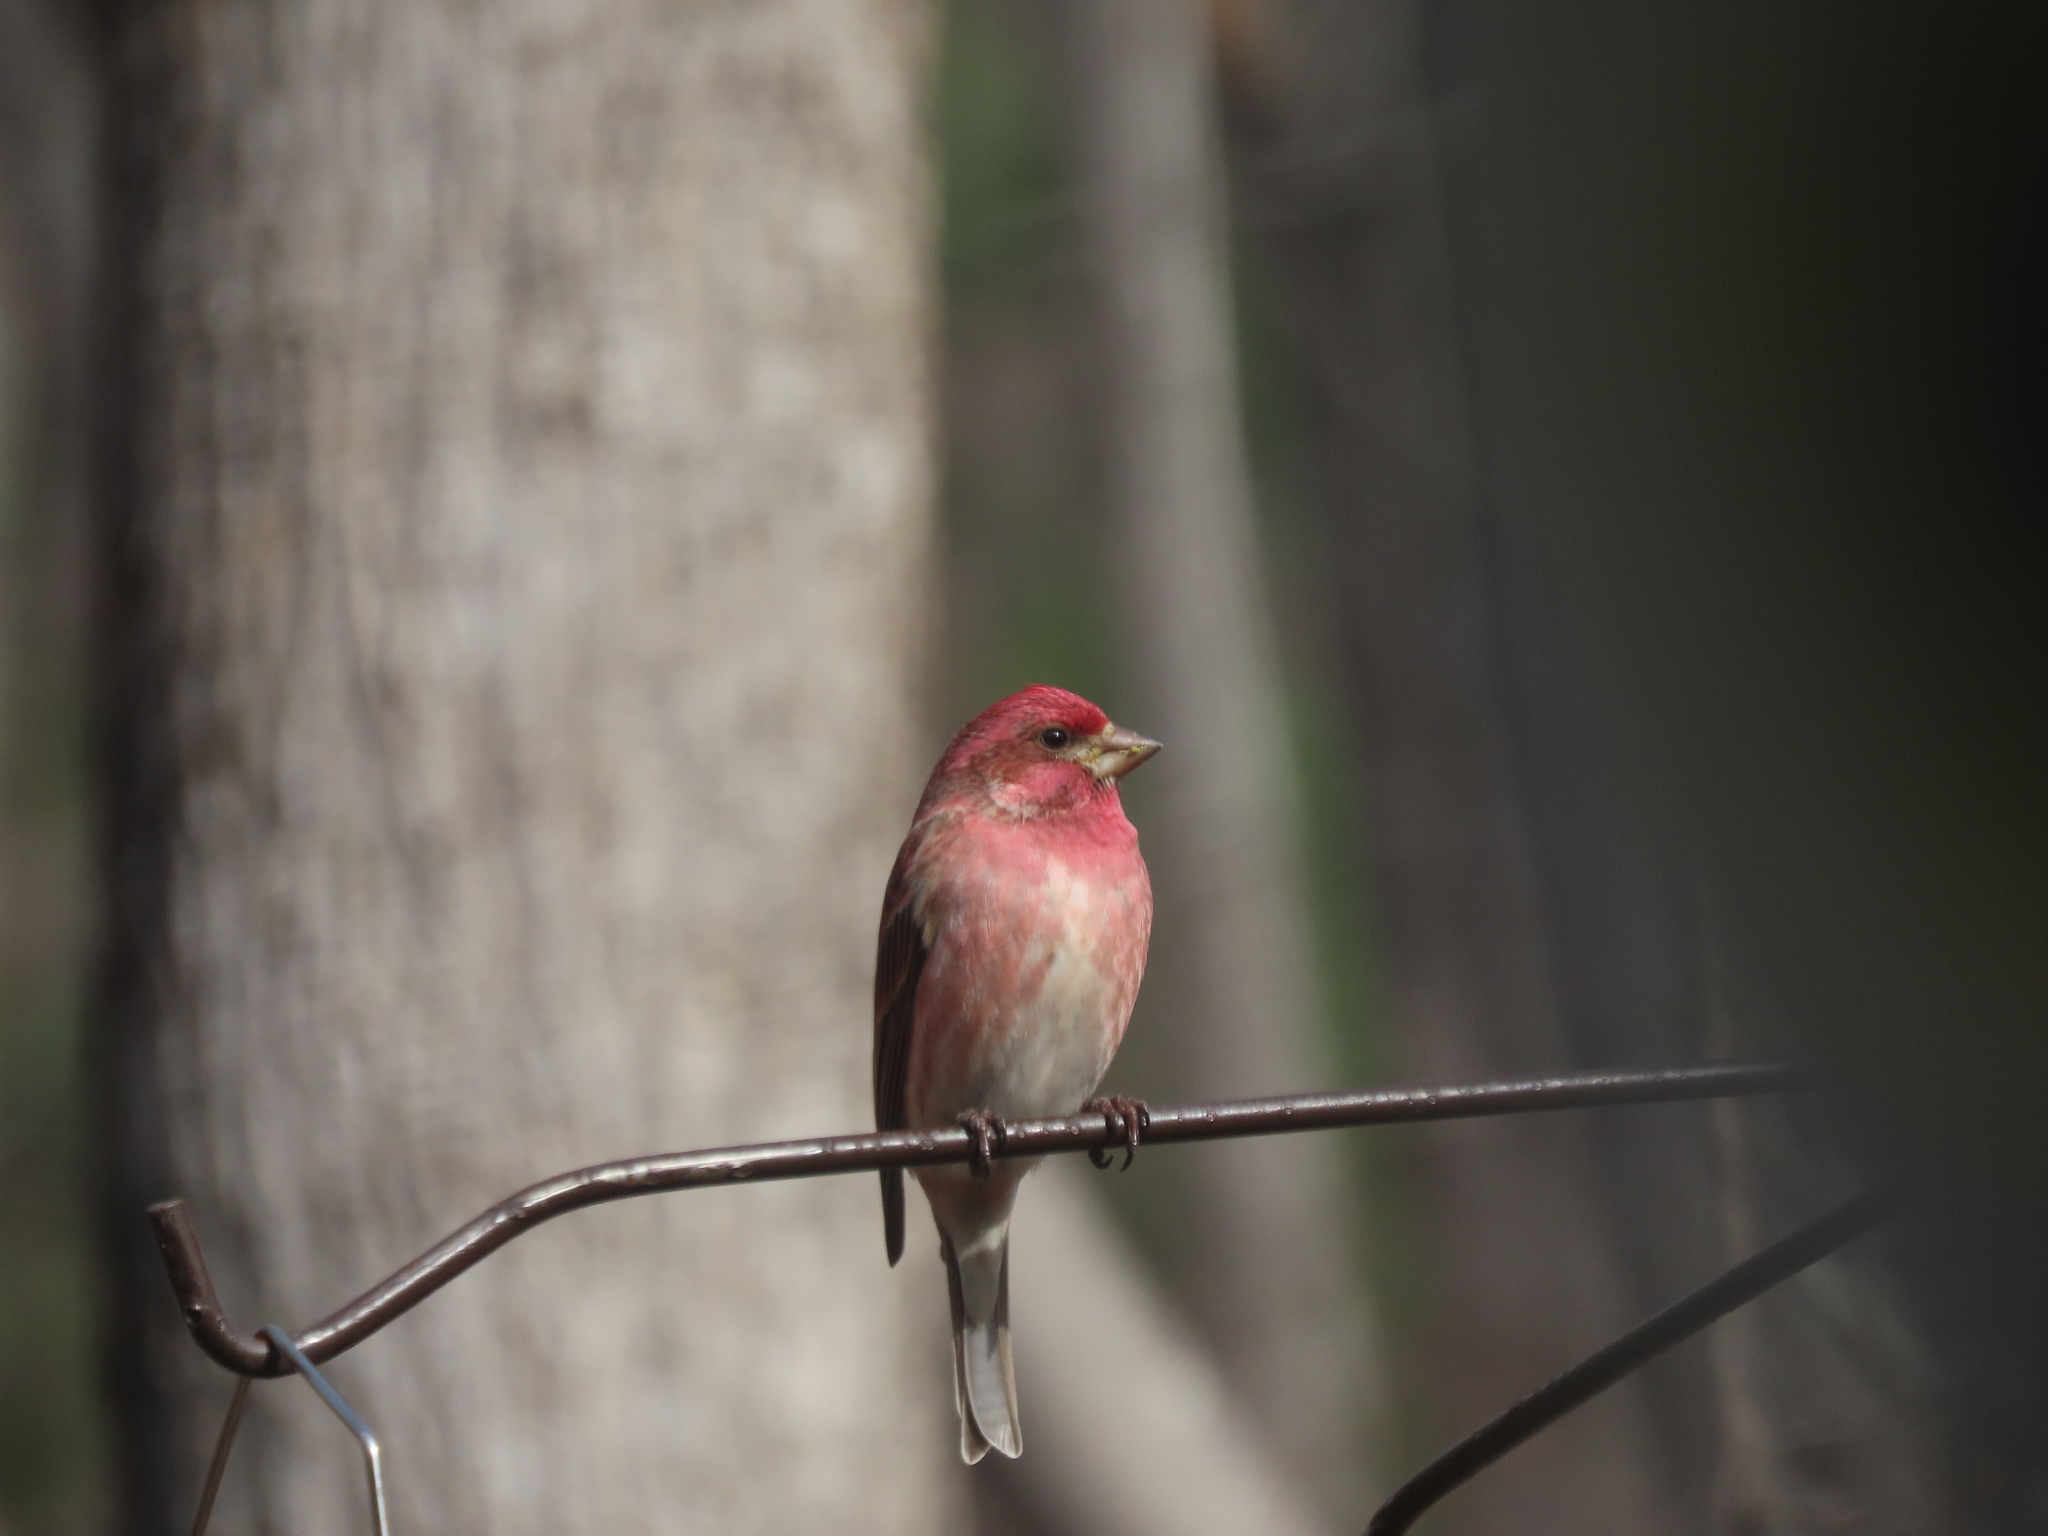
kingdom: Animalia
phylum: Chordata
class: Aves
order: Passeriformes
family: Fringillidae
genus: Haemorhous
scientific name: Haemorhous purpureus
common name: Purple finch
